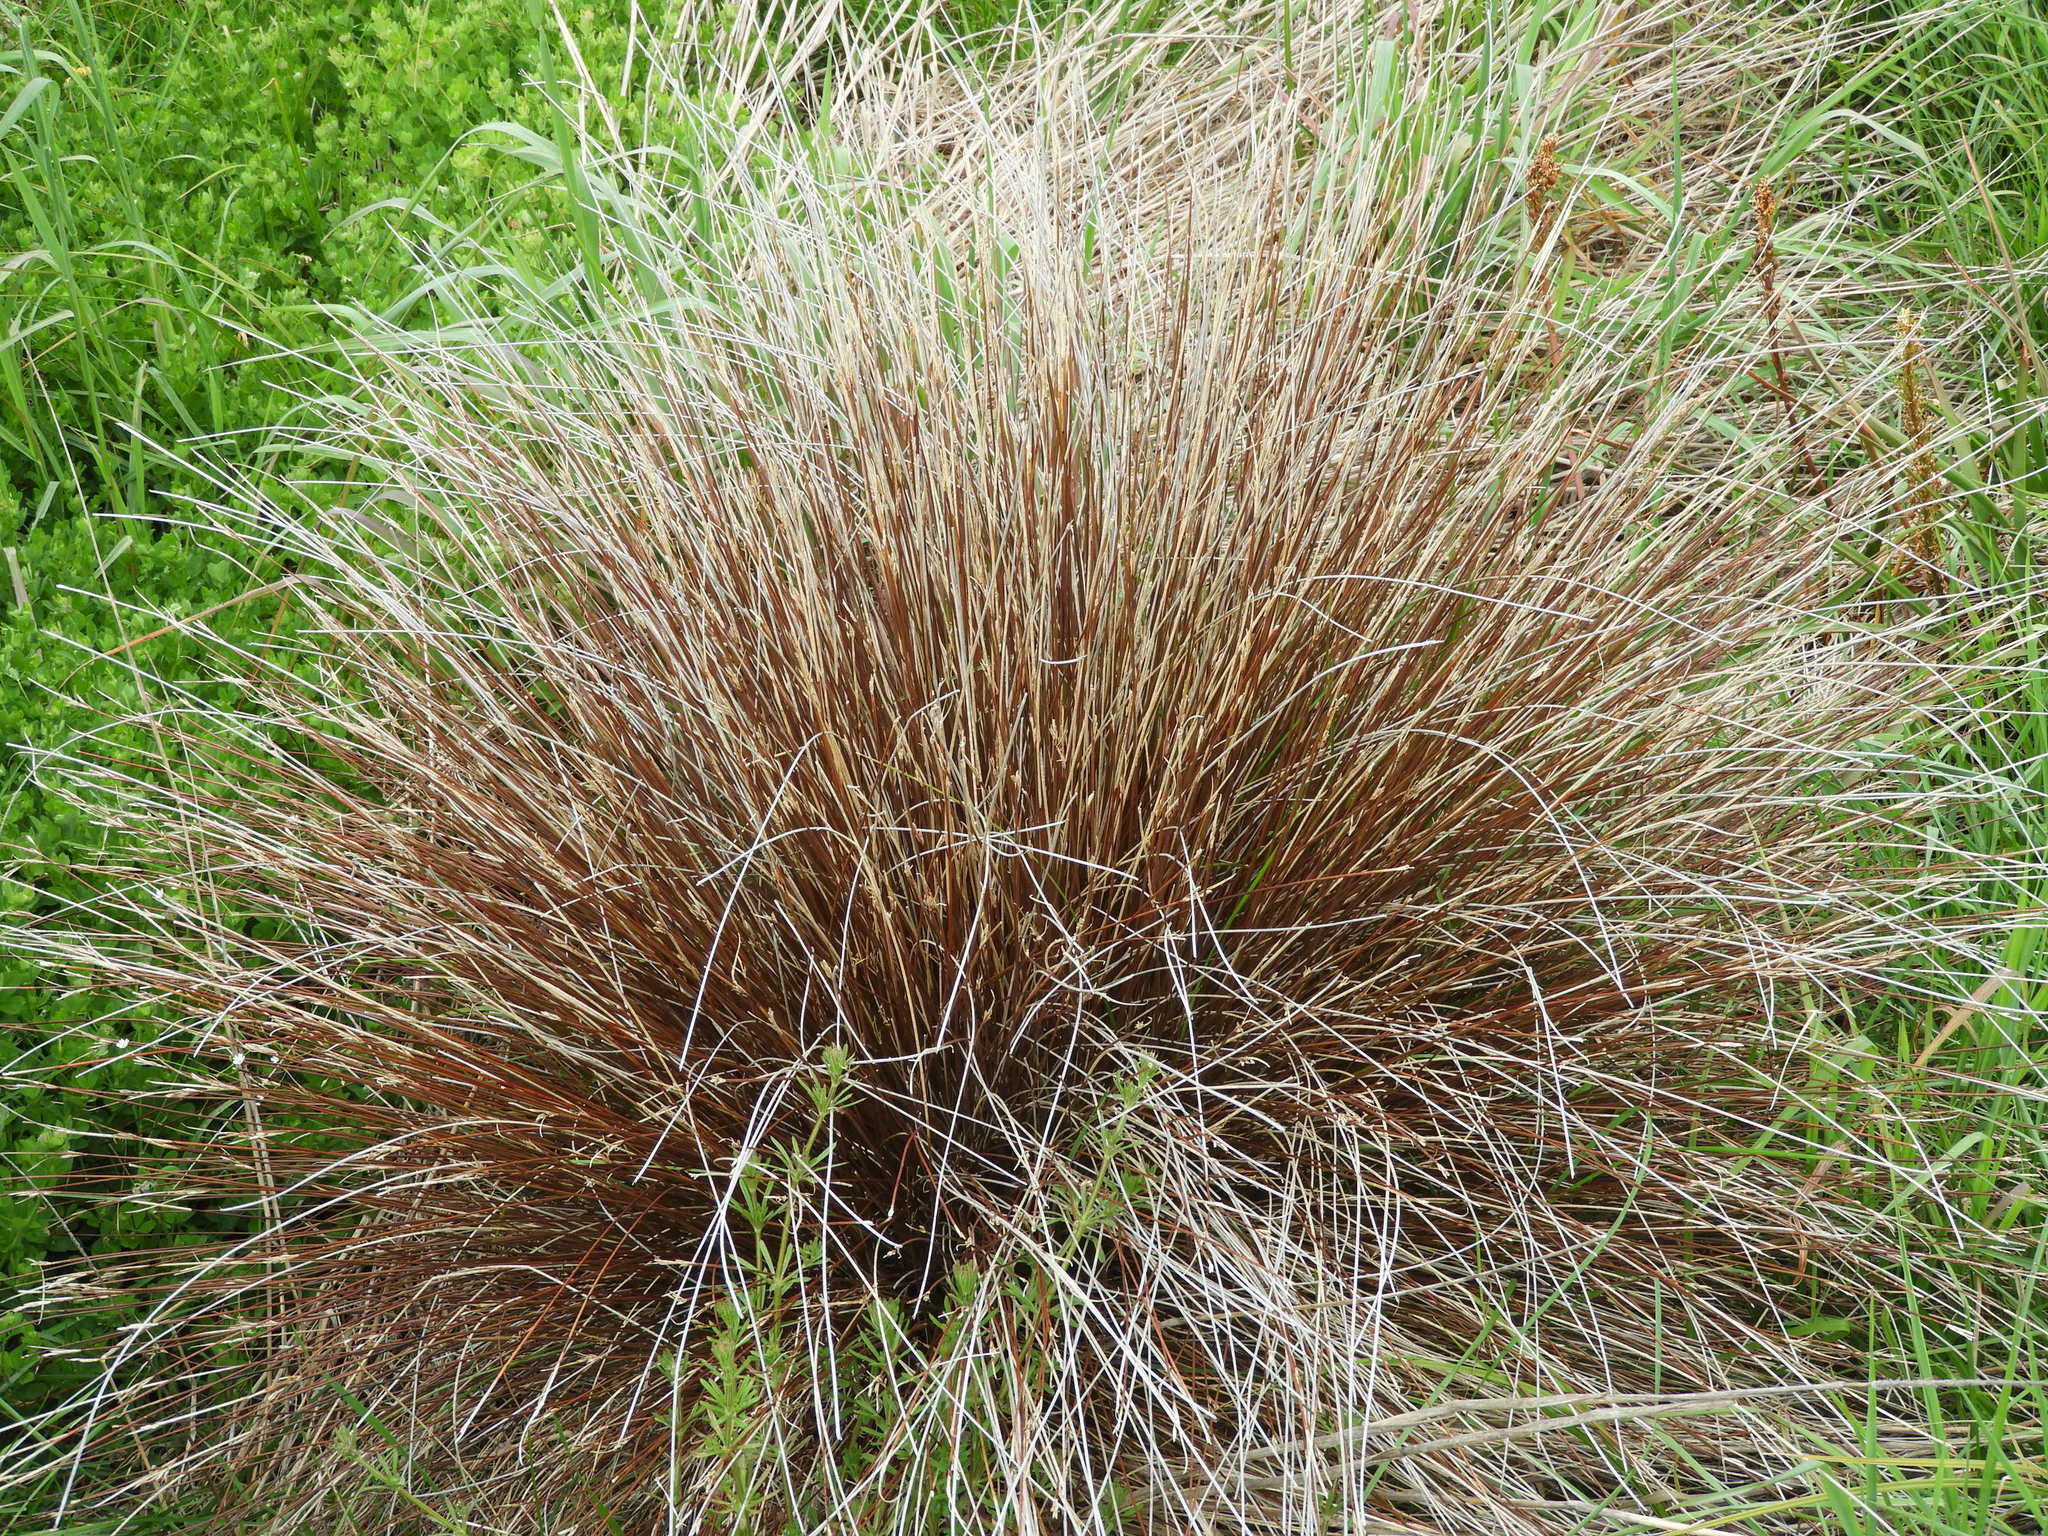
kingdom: Plantae
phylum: Tracheophyta
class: Liliopsida
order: Poales
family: Cyperaceae
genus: Schoenus
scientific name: Schoenus pauciflorus
